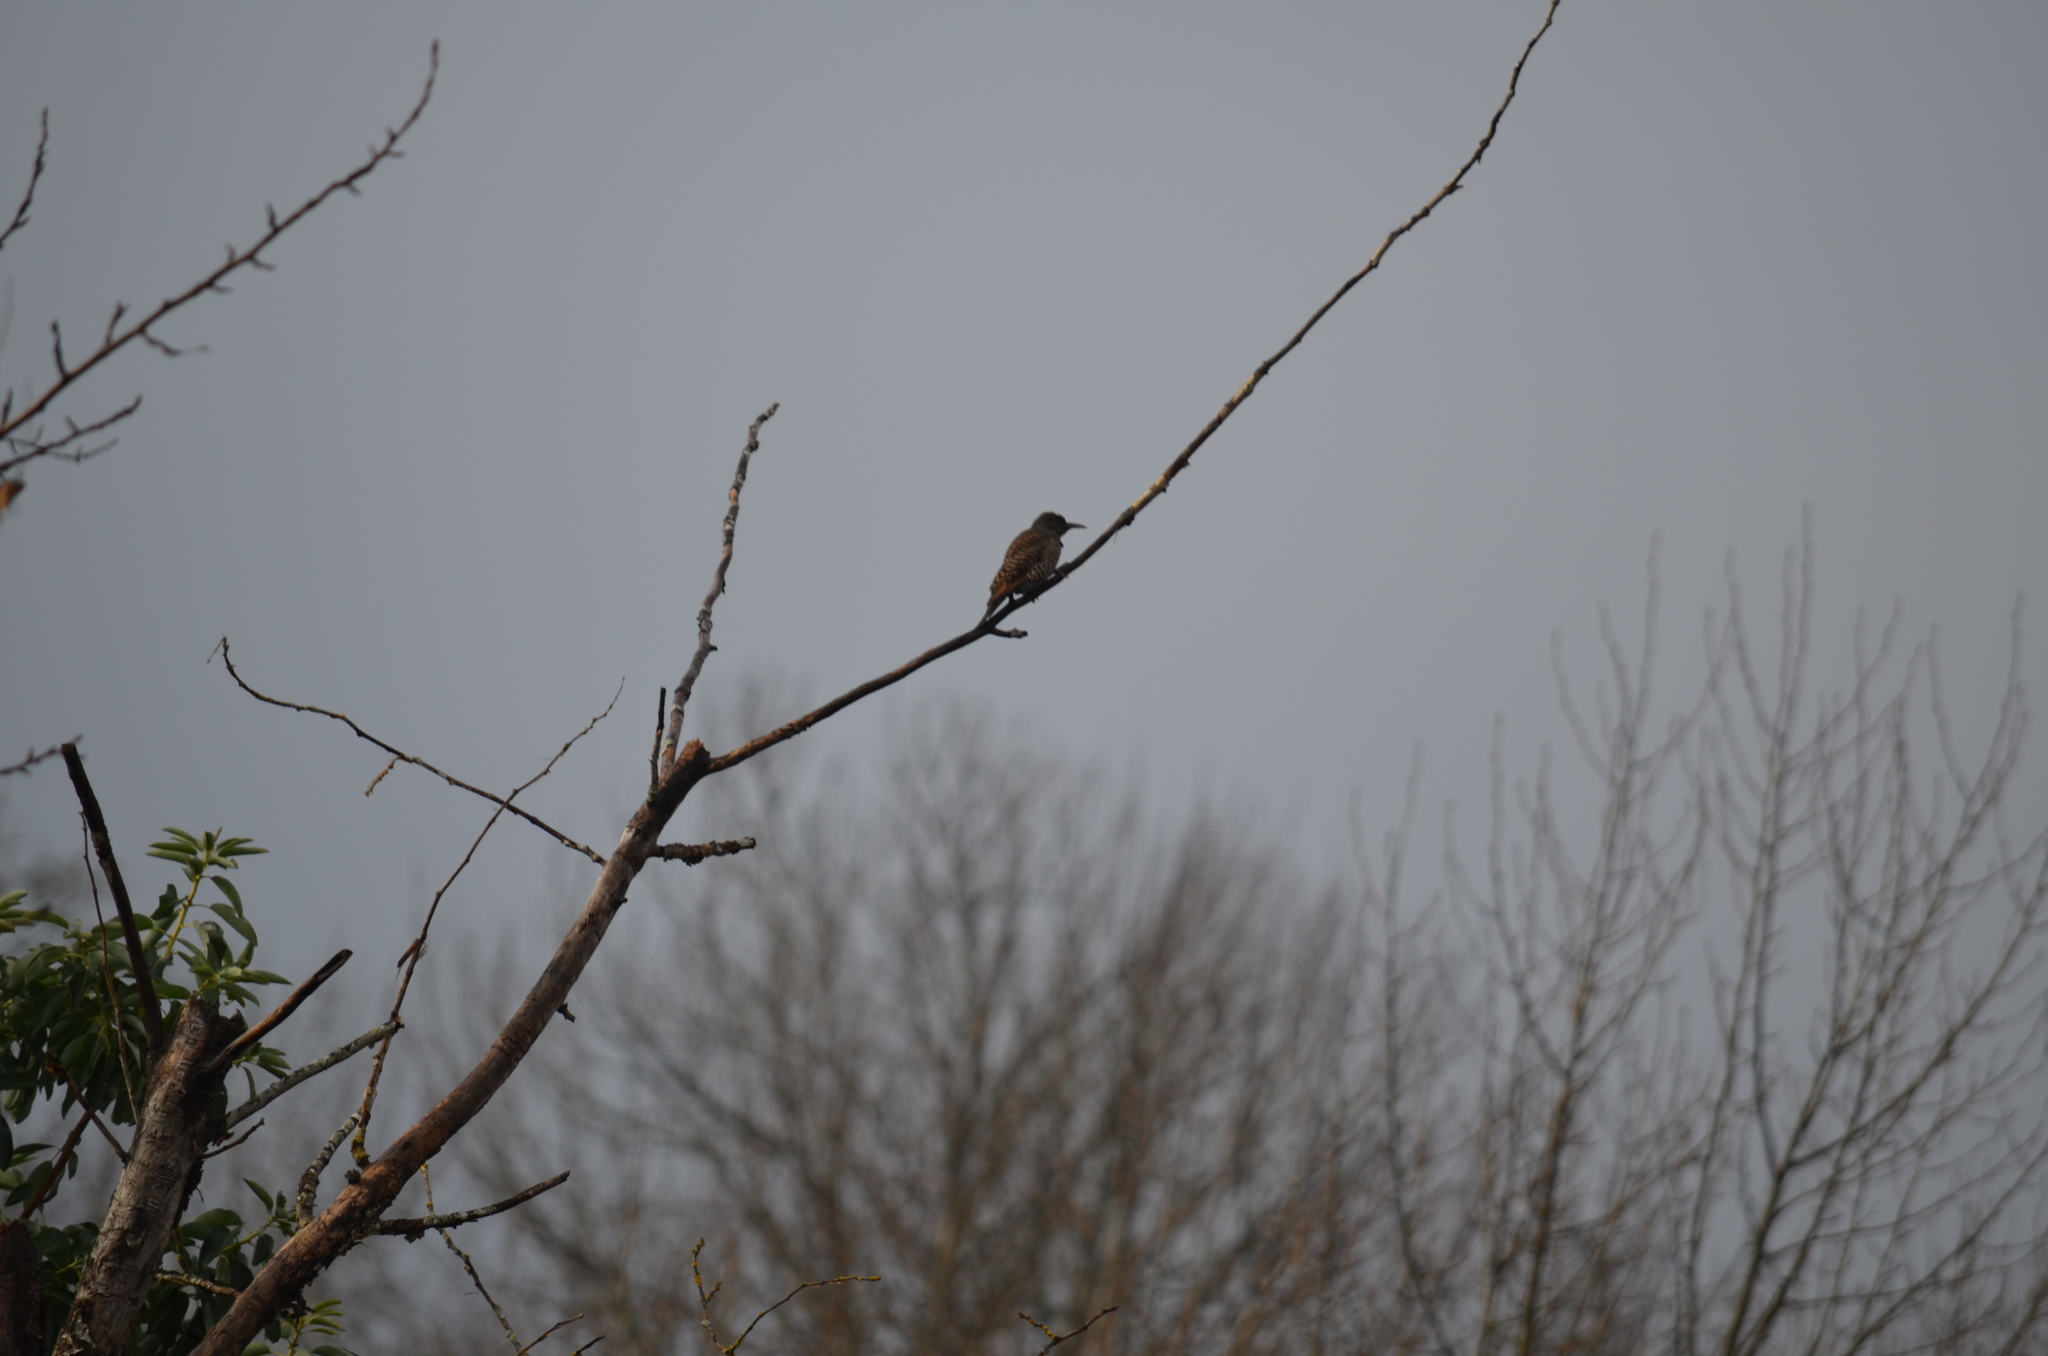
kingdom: Animalia
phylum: Chordata
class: Aves
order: Piciformes
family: Picidae
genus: Colaptes
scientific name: Colaptes auratus
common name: Northern flicker
